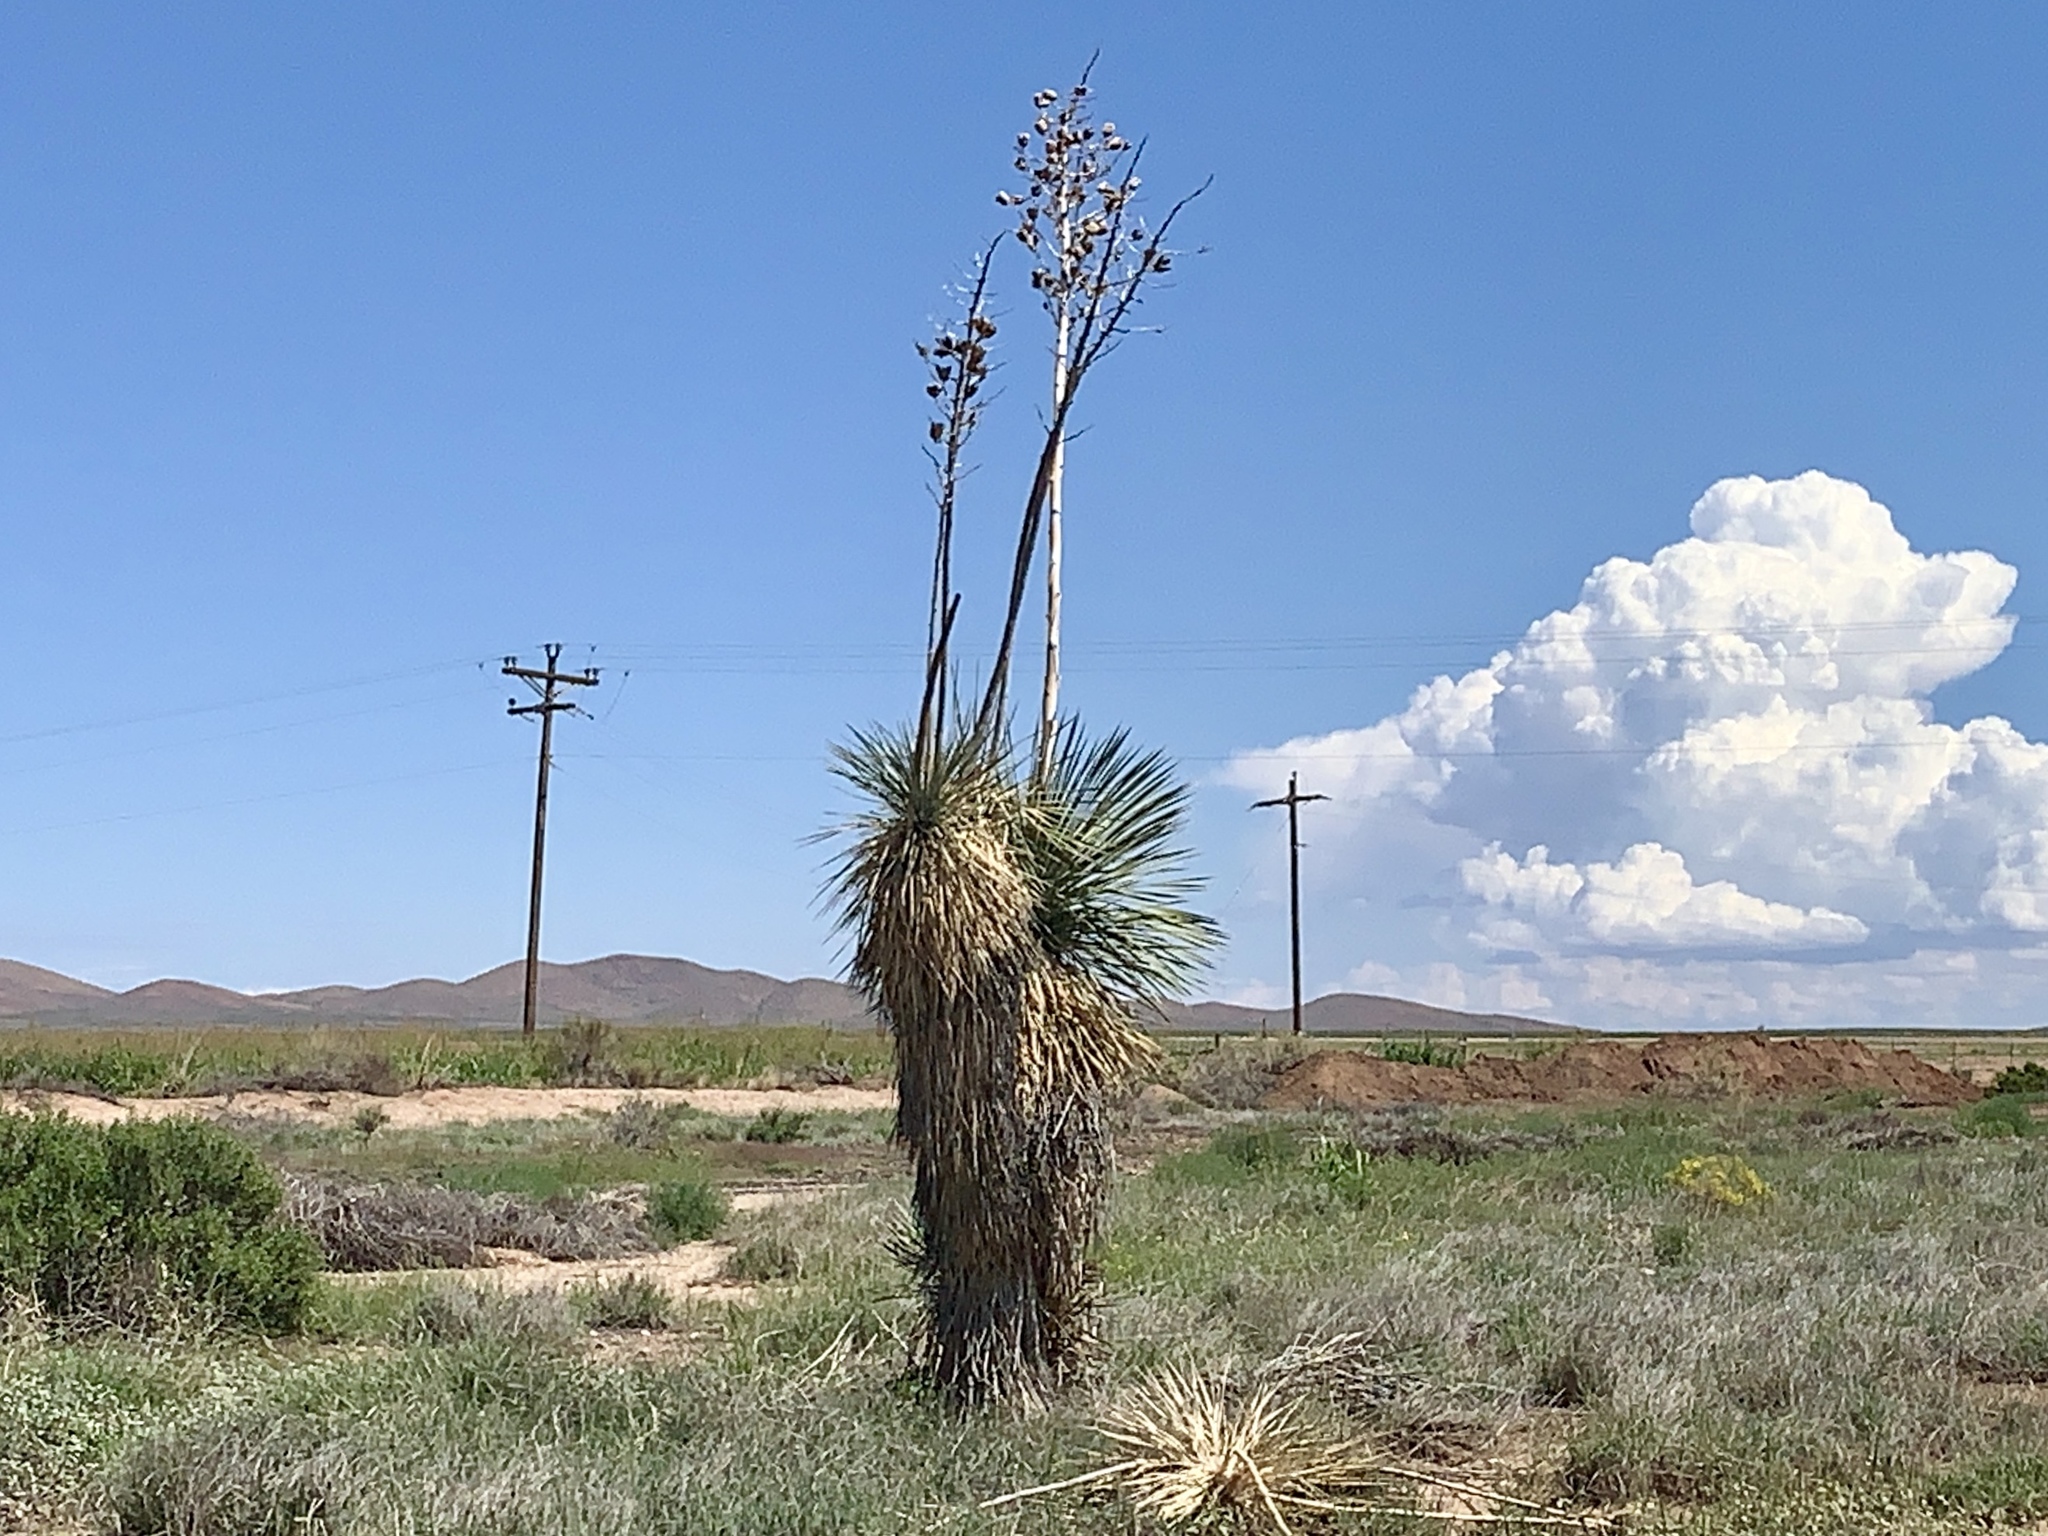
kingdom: Plantae
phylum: Tracheophyta
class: Liliopsida
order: Asparagales
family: Asparagaceae
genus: Yucca
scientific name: Yucca elata
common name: Palmella
